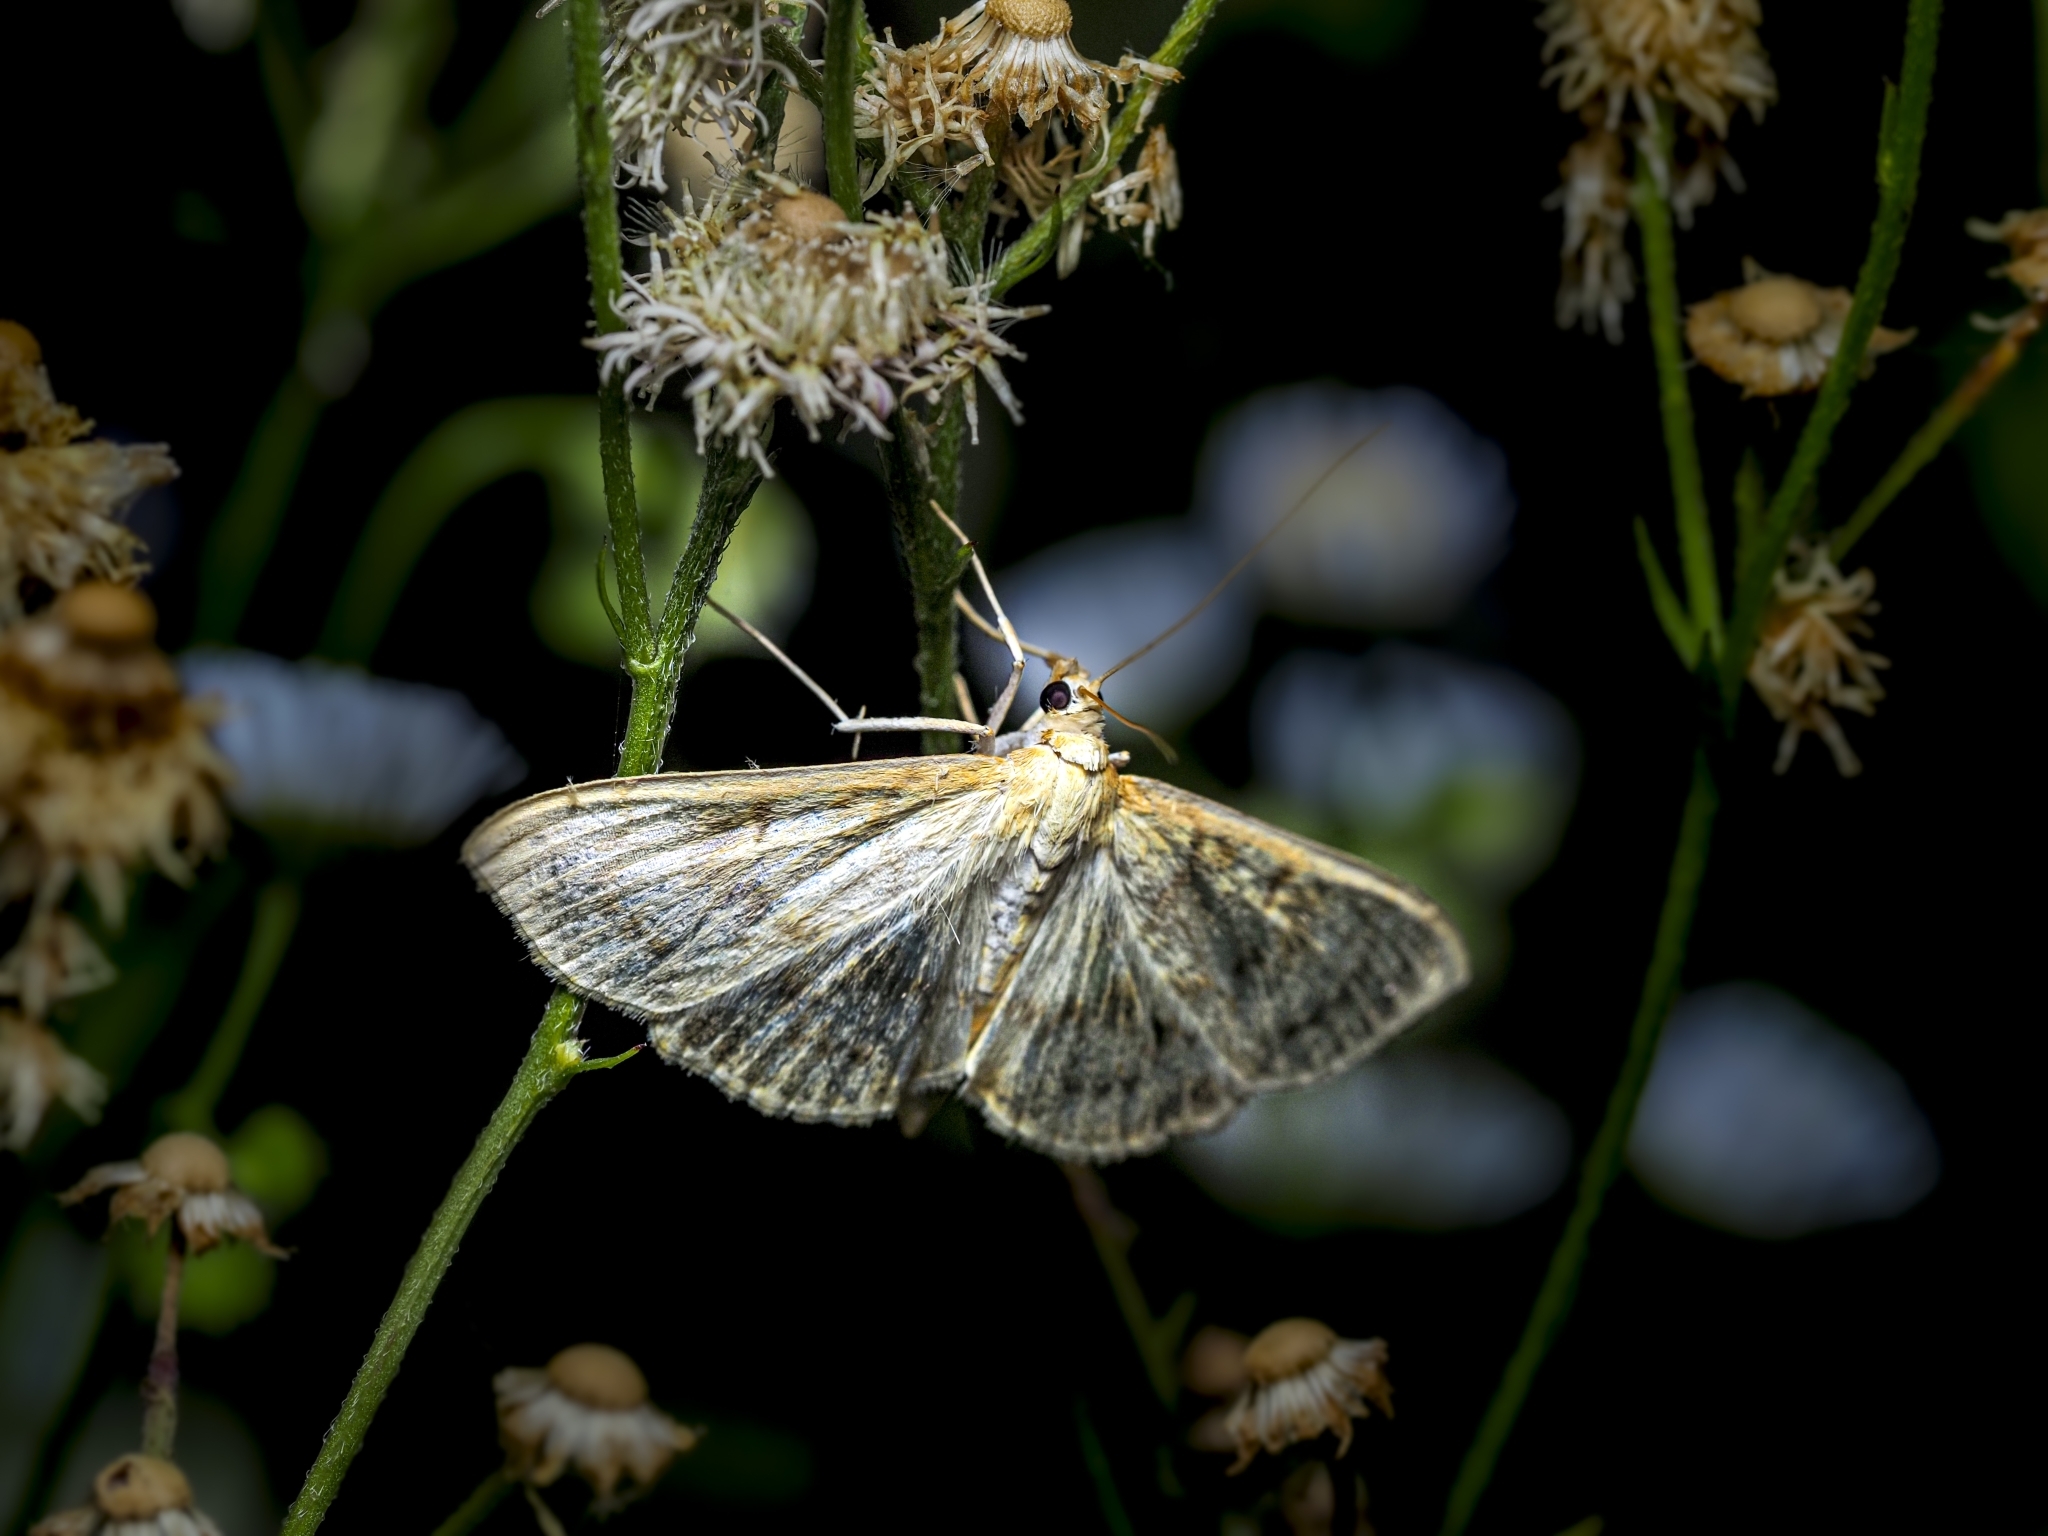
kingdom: Animalia
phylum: Arthropoda
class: Insecta
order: Lepidoptera
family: Crambidae
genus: Patania
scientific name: Patania ruralis
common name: Mother of pearl
